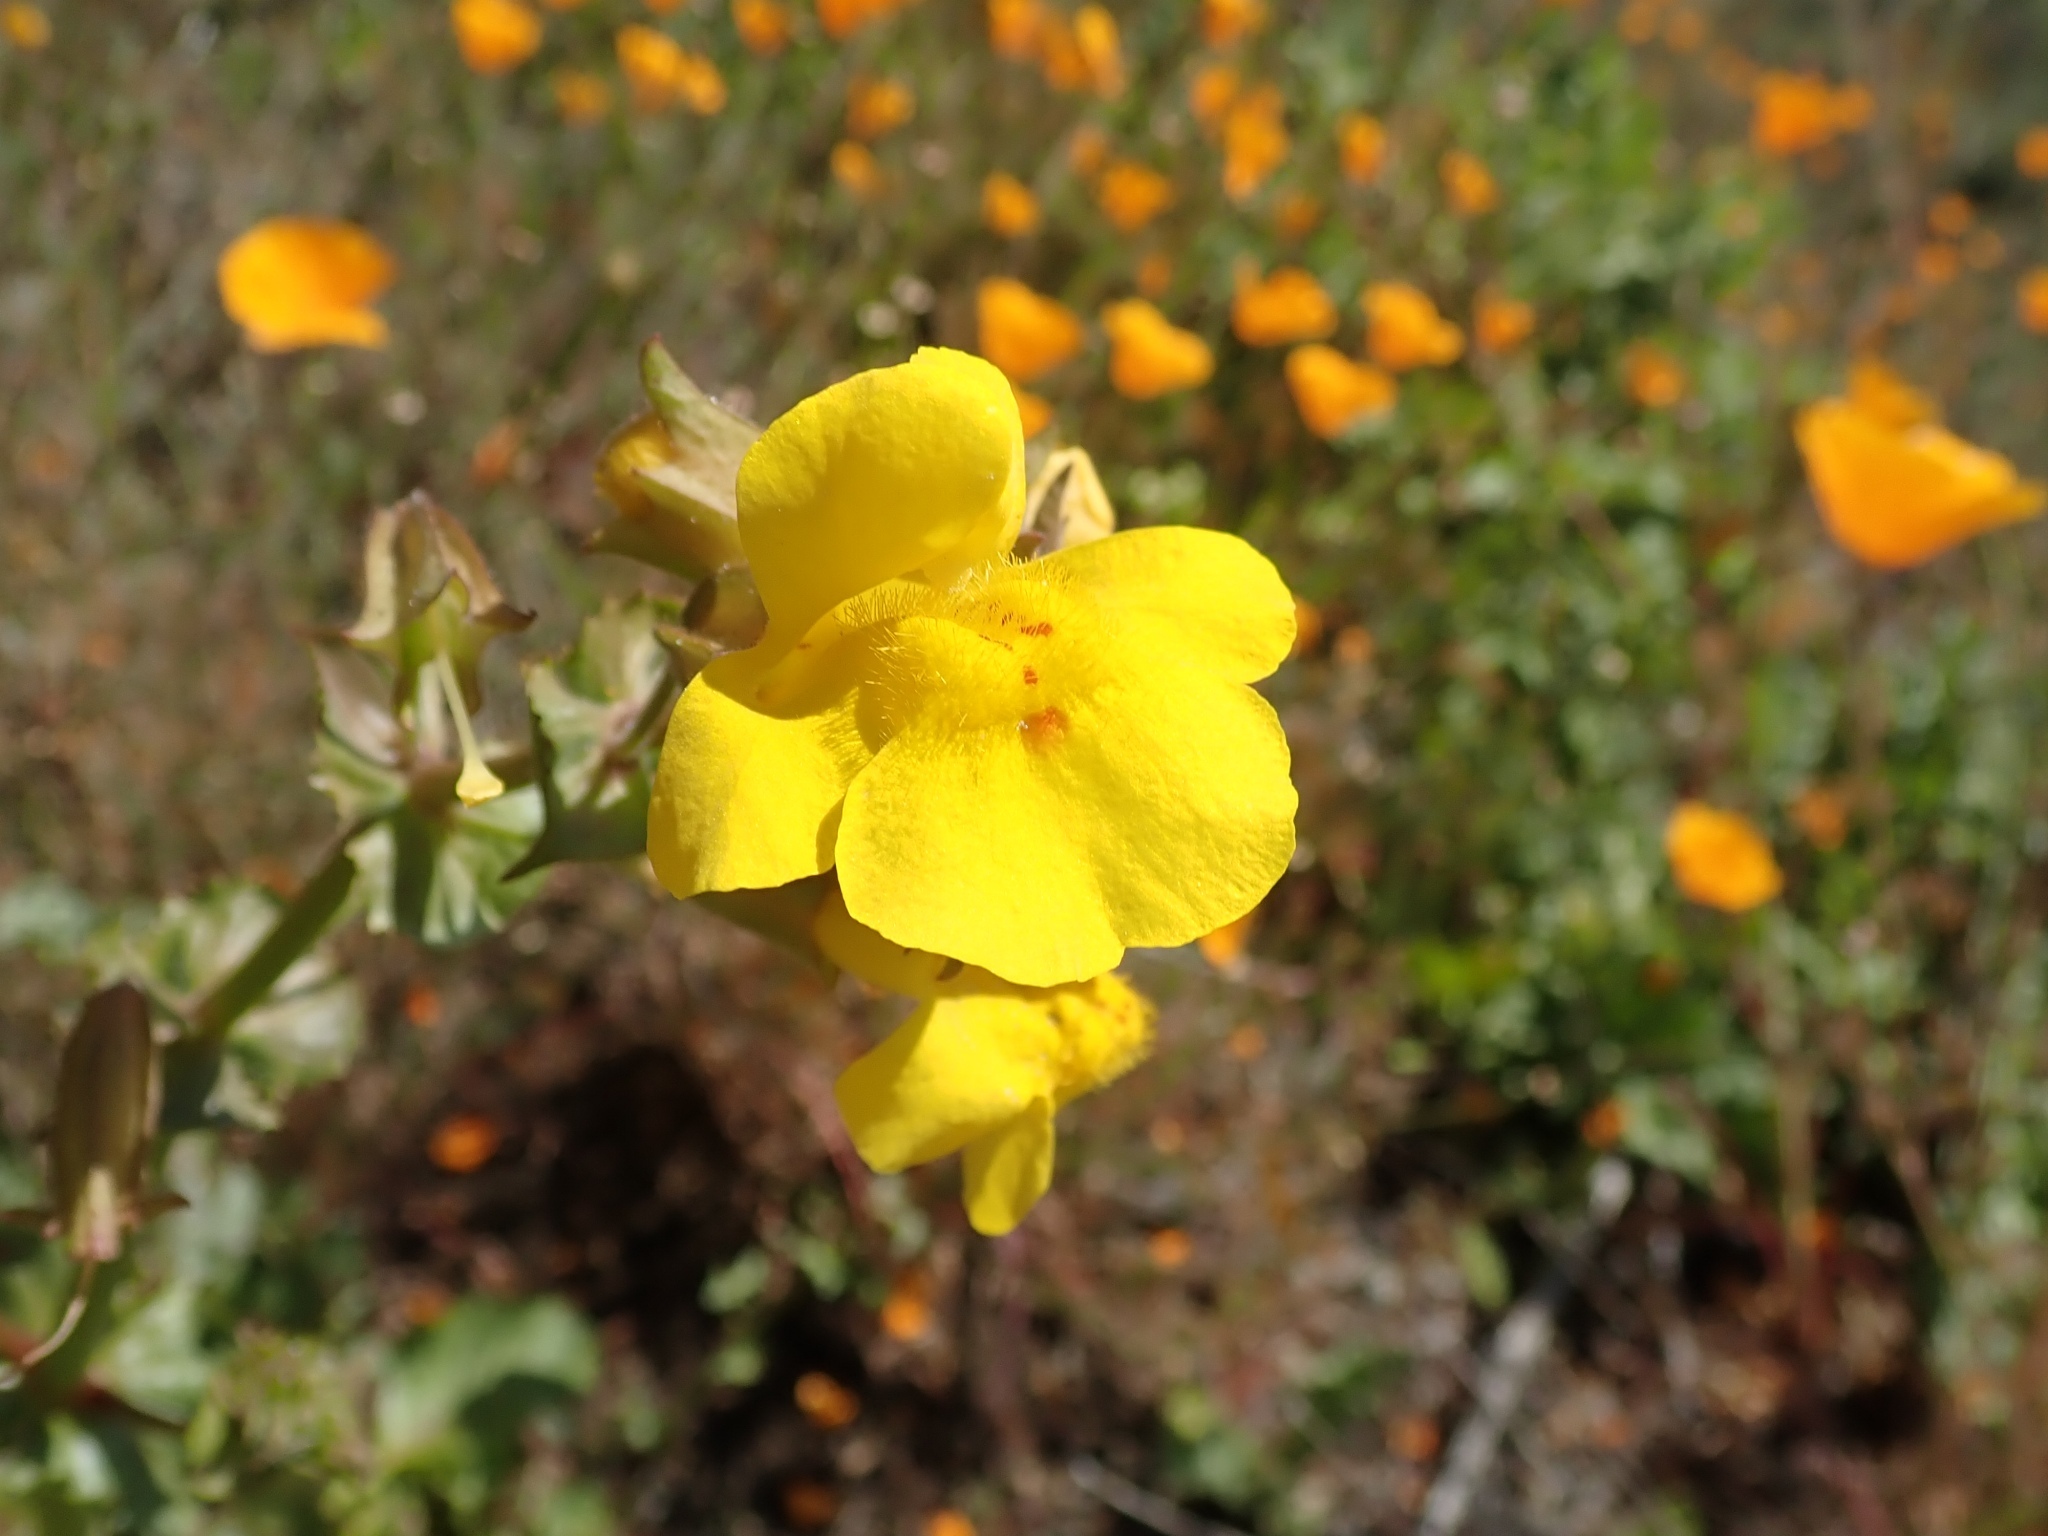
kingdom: Plantae
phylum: Tracheophyta
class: Magnoliopsida
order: Lamiales
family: Phrymaceae
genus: Erythranthe
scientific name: Erythranthe guttata
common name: Monkeyflower
